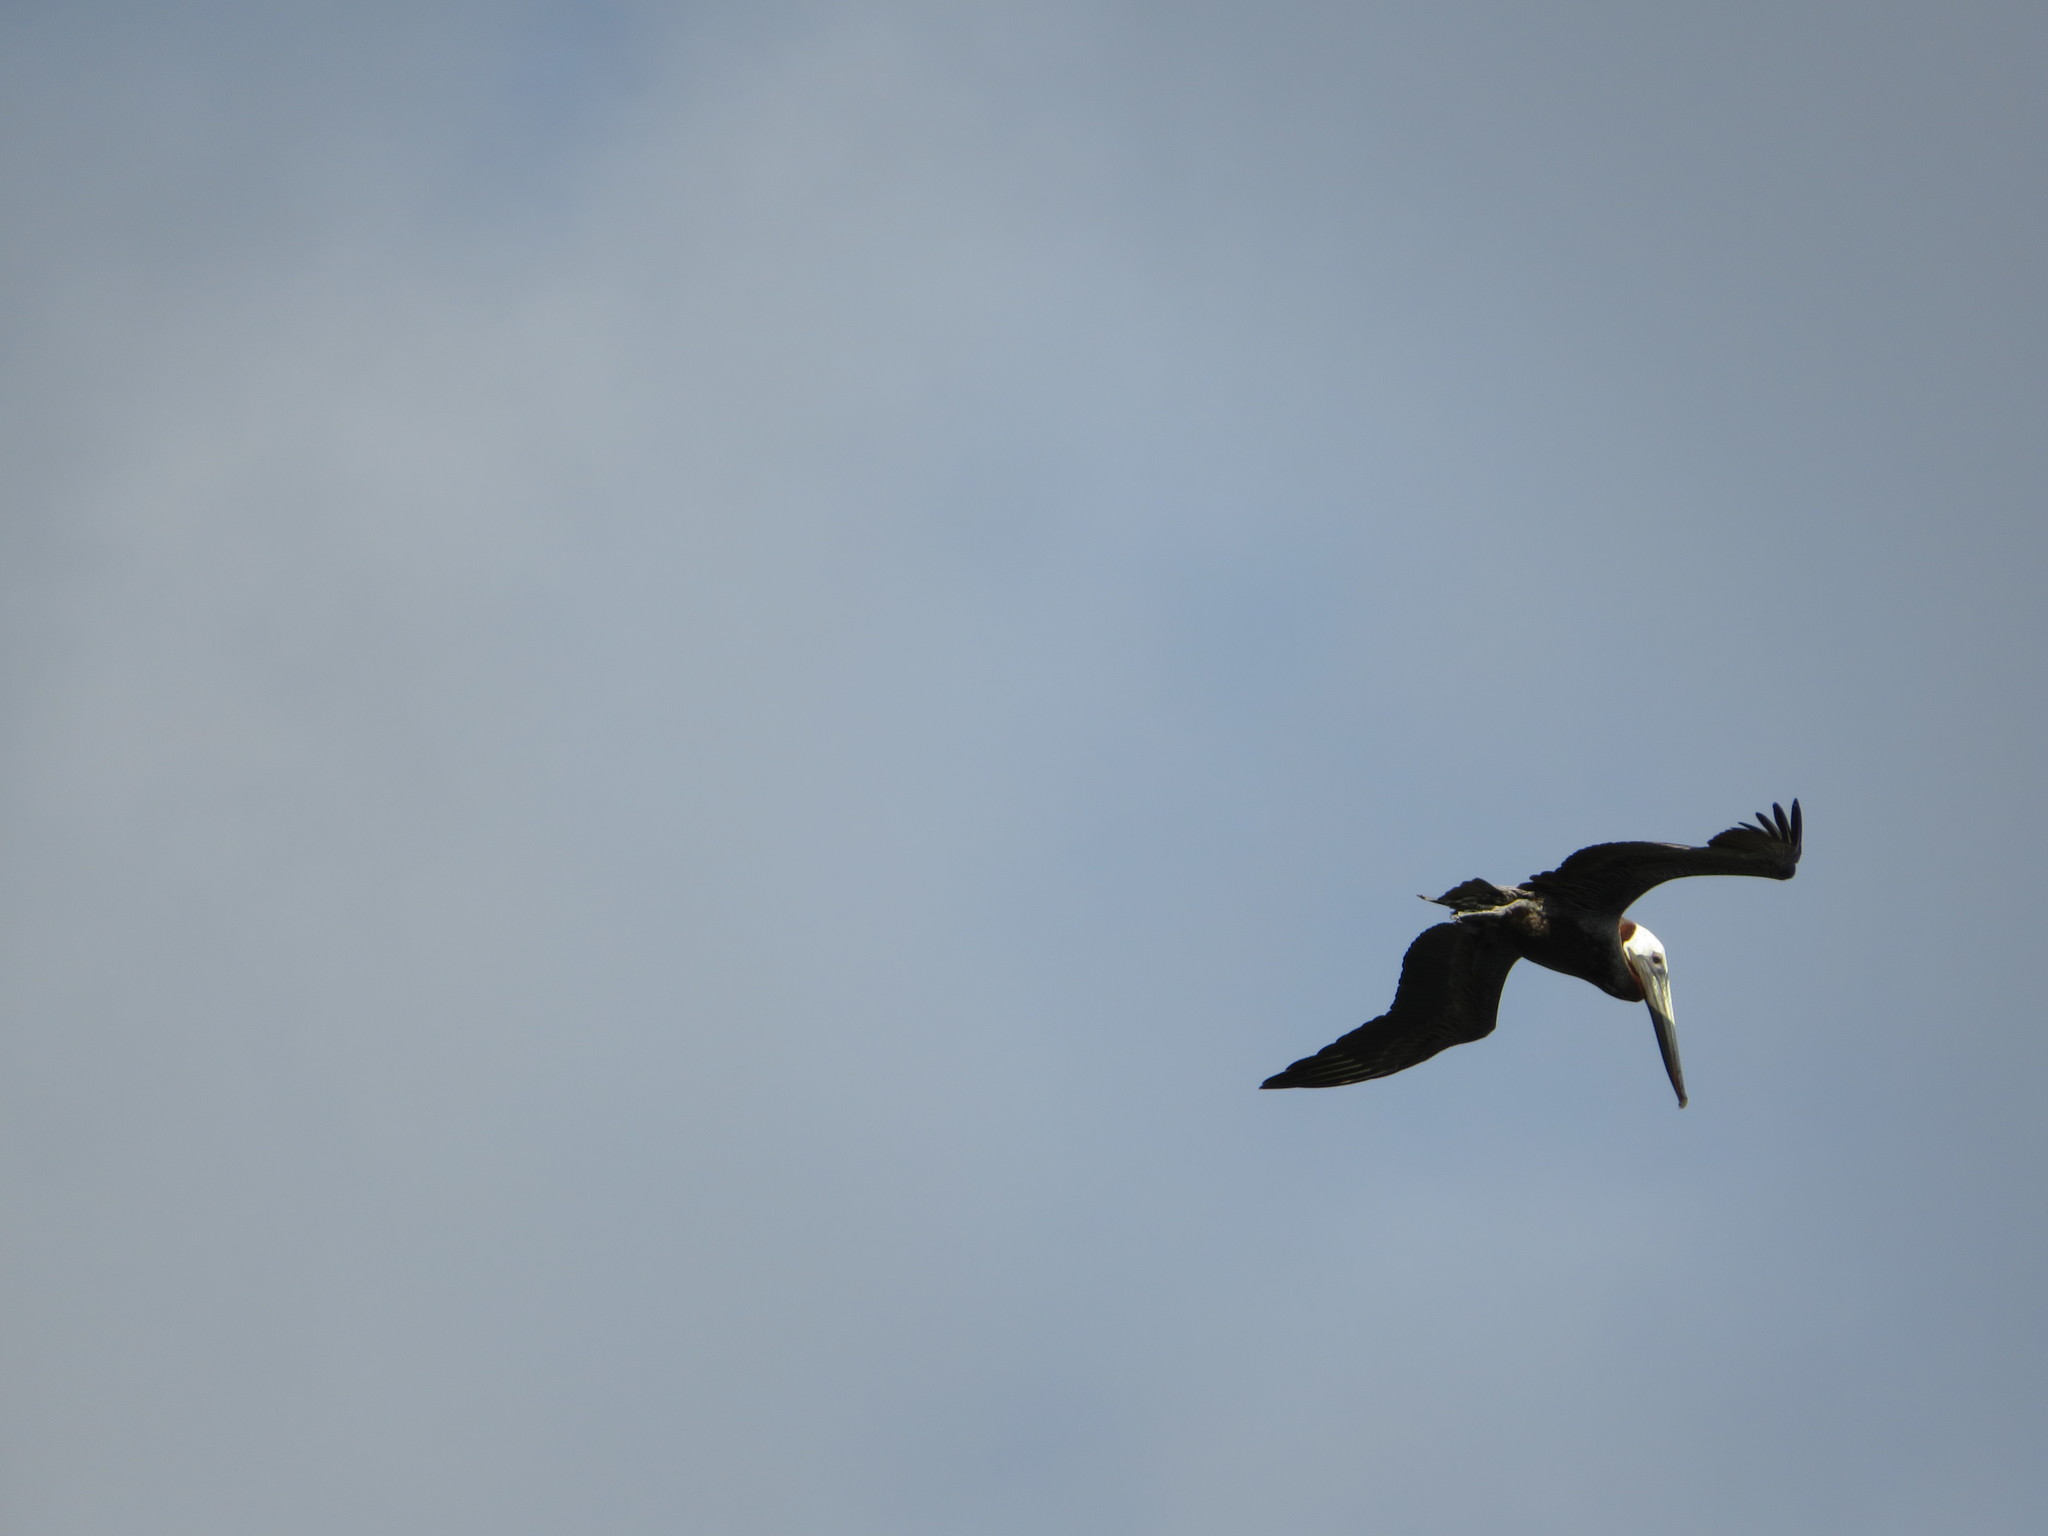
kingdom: Animalia
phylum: Chordata
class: Aves
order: Pelecaniformes
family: Pelecanidae
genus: Pelecanus
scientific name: Pelecanus occidentalis
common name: Brown pelican
